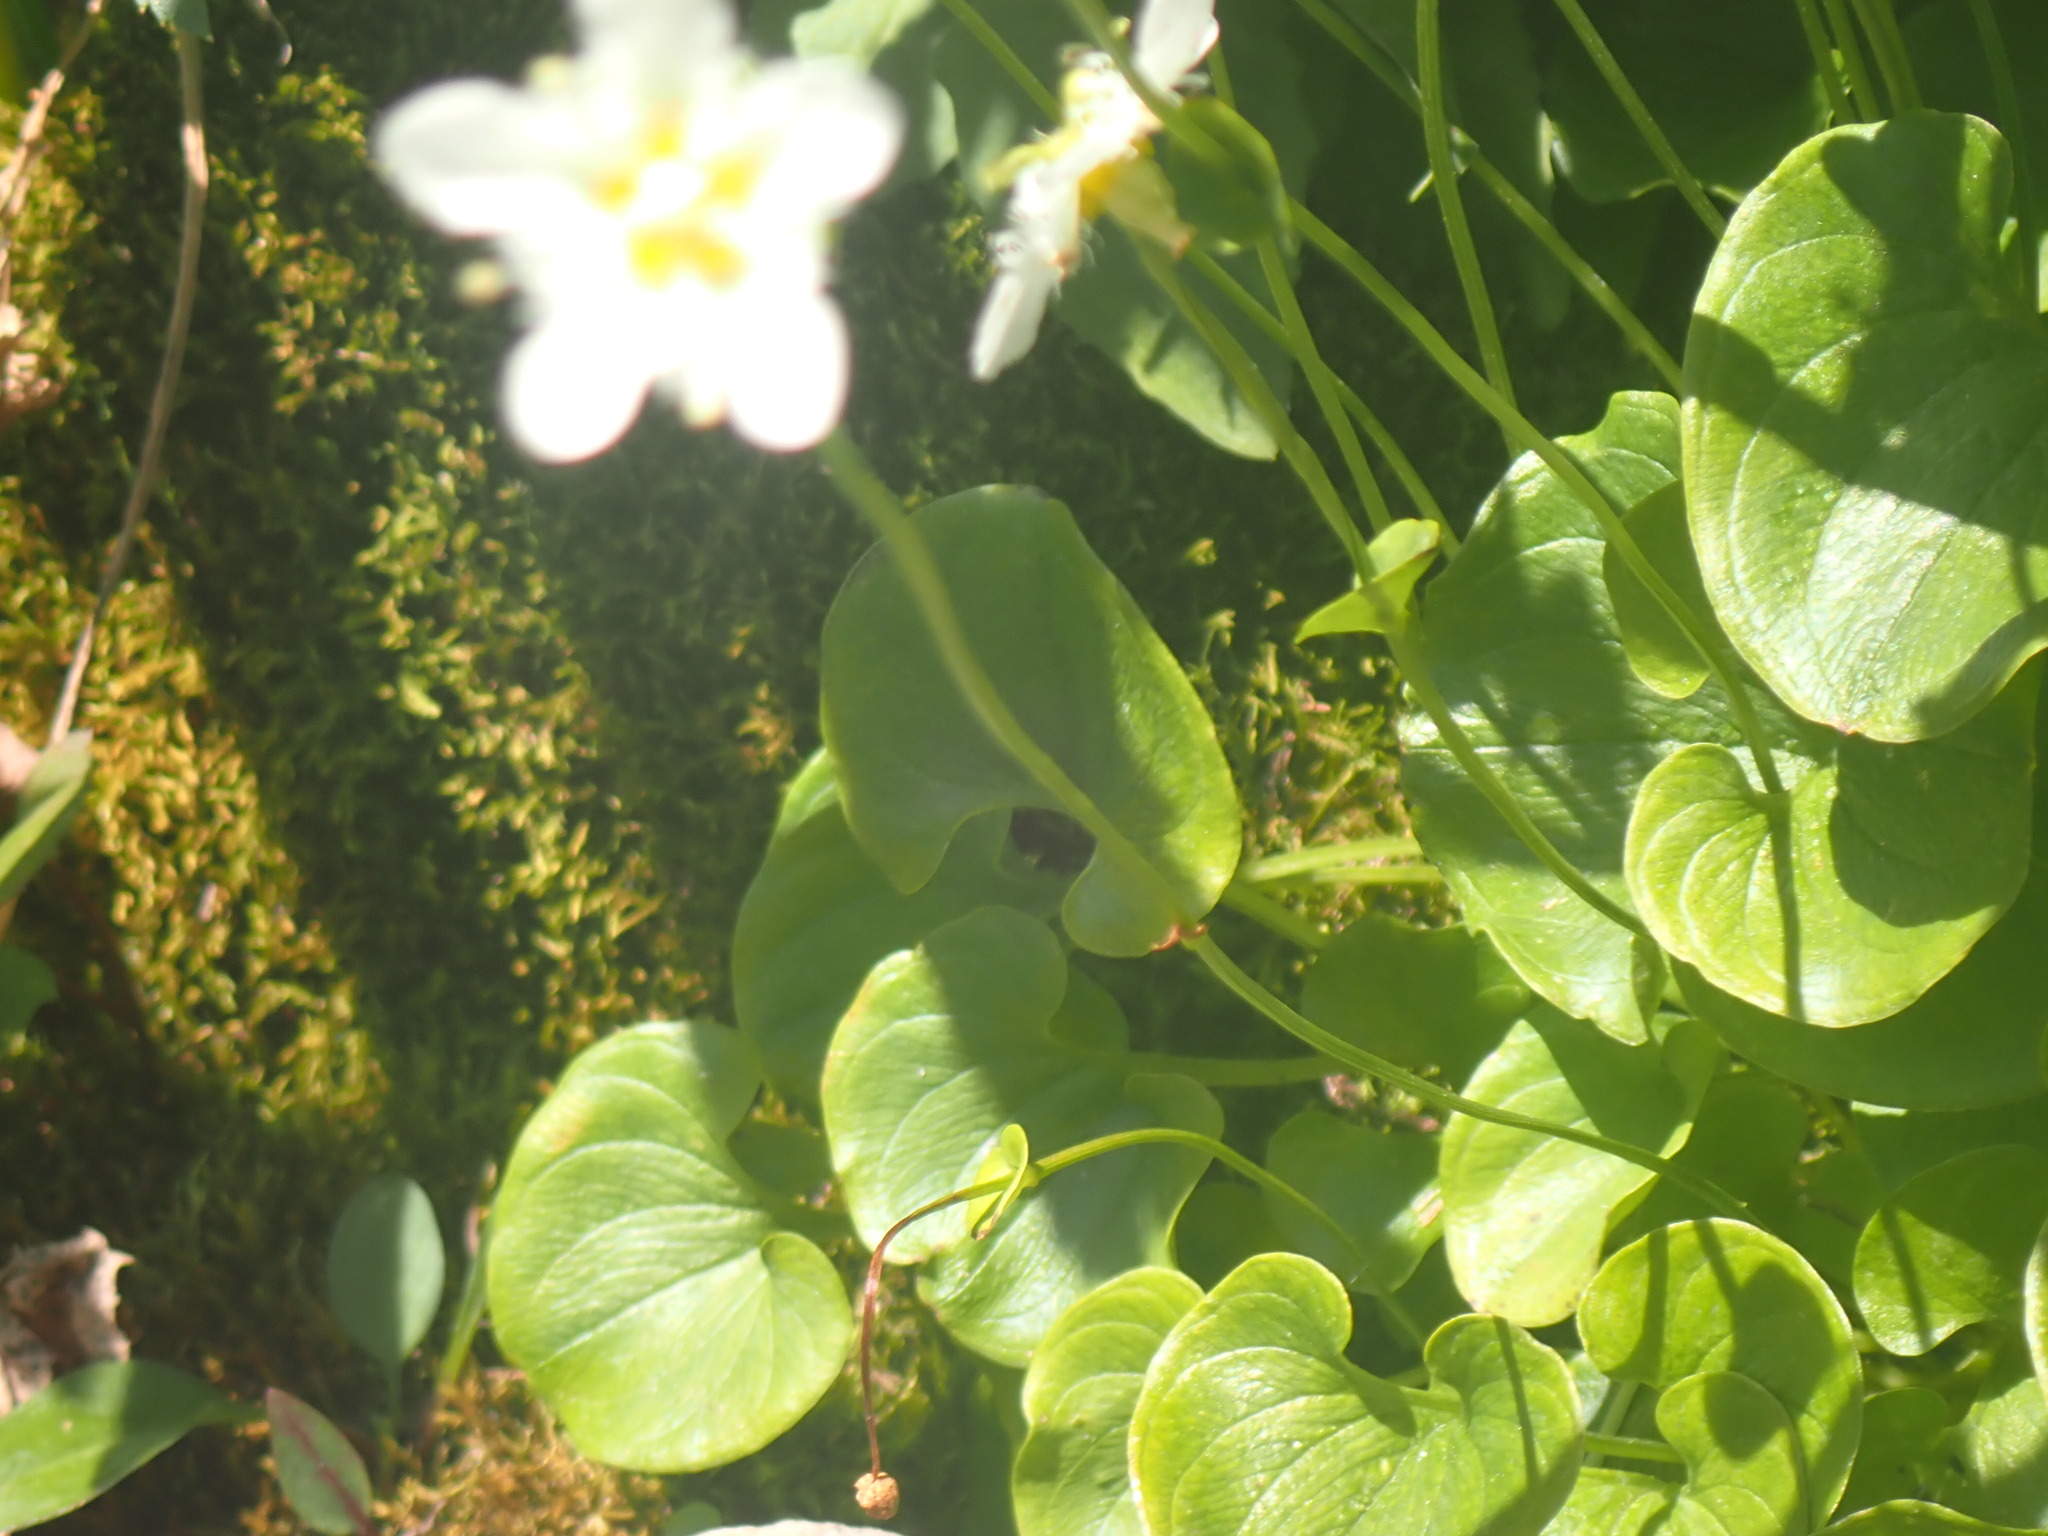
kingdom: Plantae
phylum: Tracheophyta
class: Magnoliopsida
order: Celastrales
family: Parnassiaceae
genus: Parnassia
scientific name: Parnassia fimbriata
